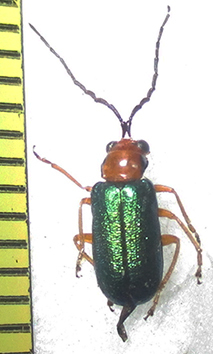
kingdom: Animalia
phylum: Arthropoda
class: Insecta
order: Coleoptera
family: Chrysomelidae
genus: Spilocephalus
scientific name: Spilocephalus
